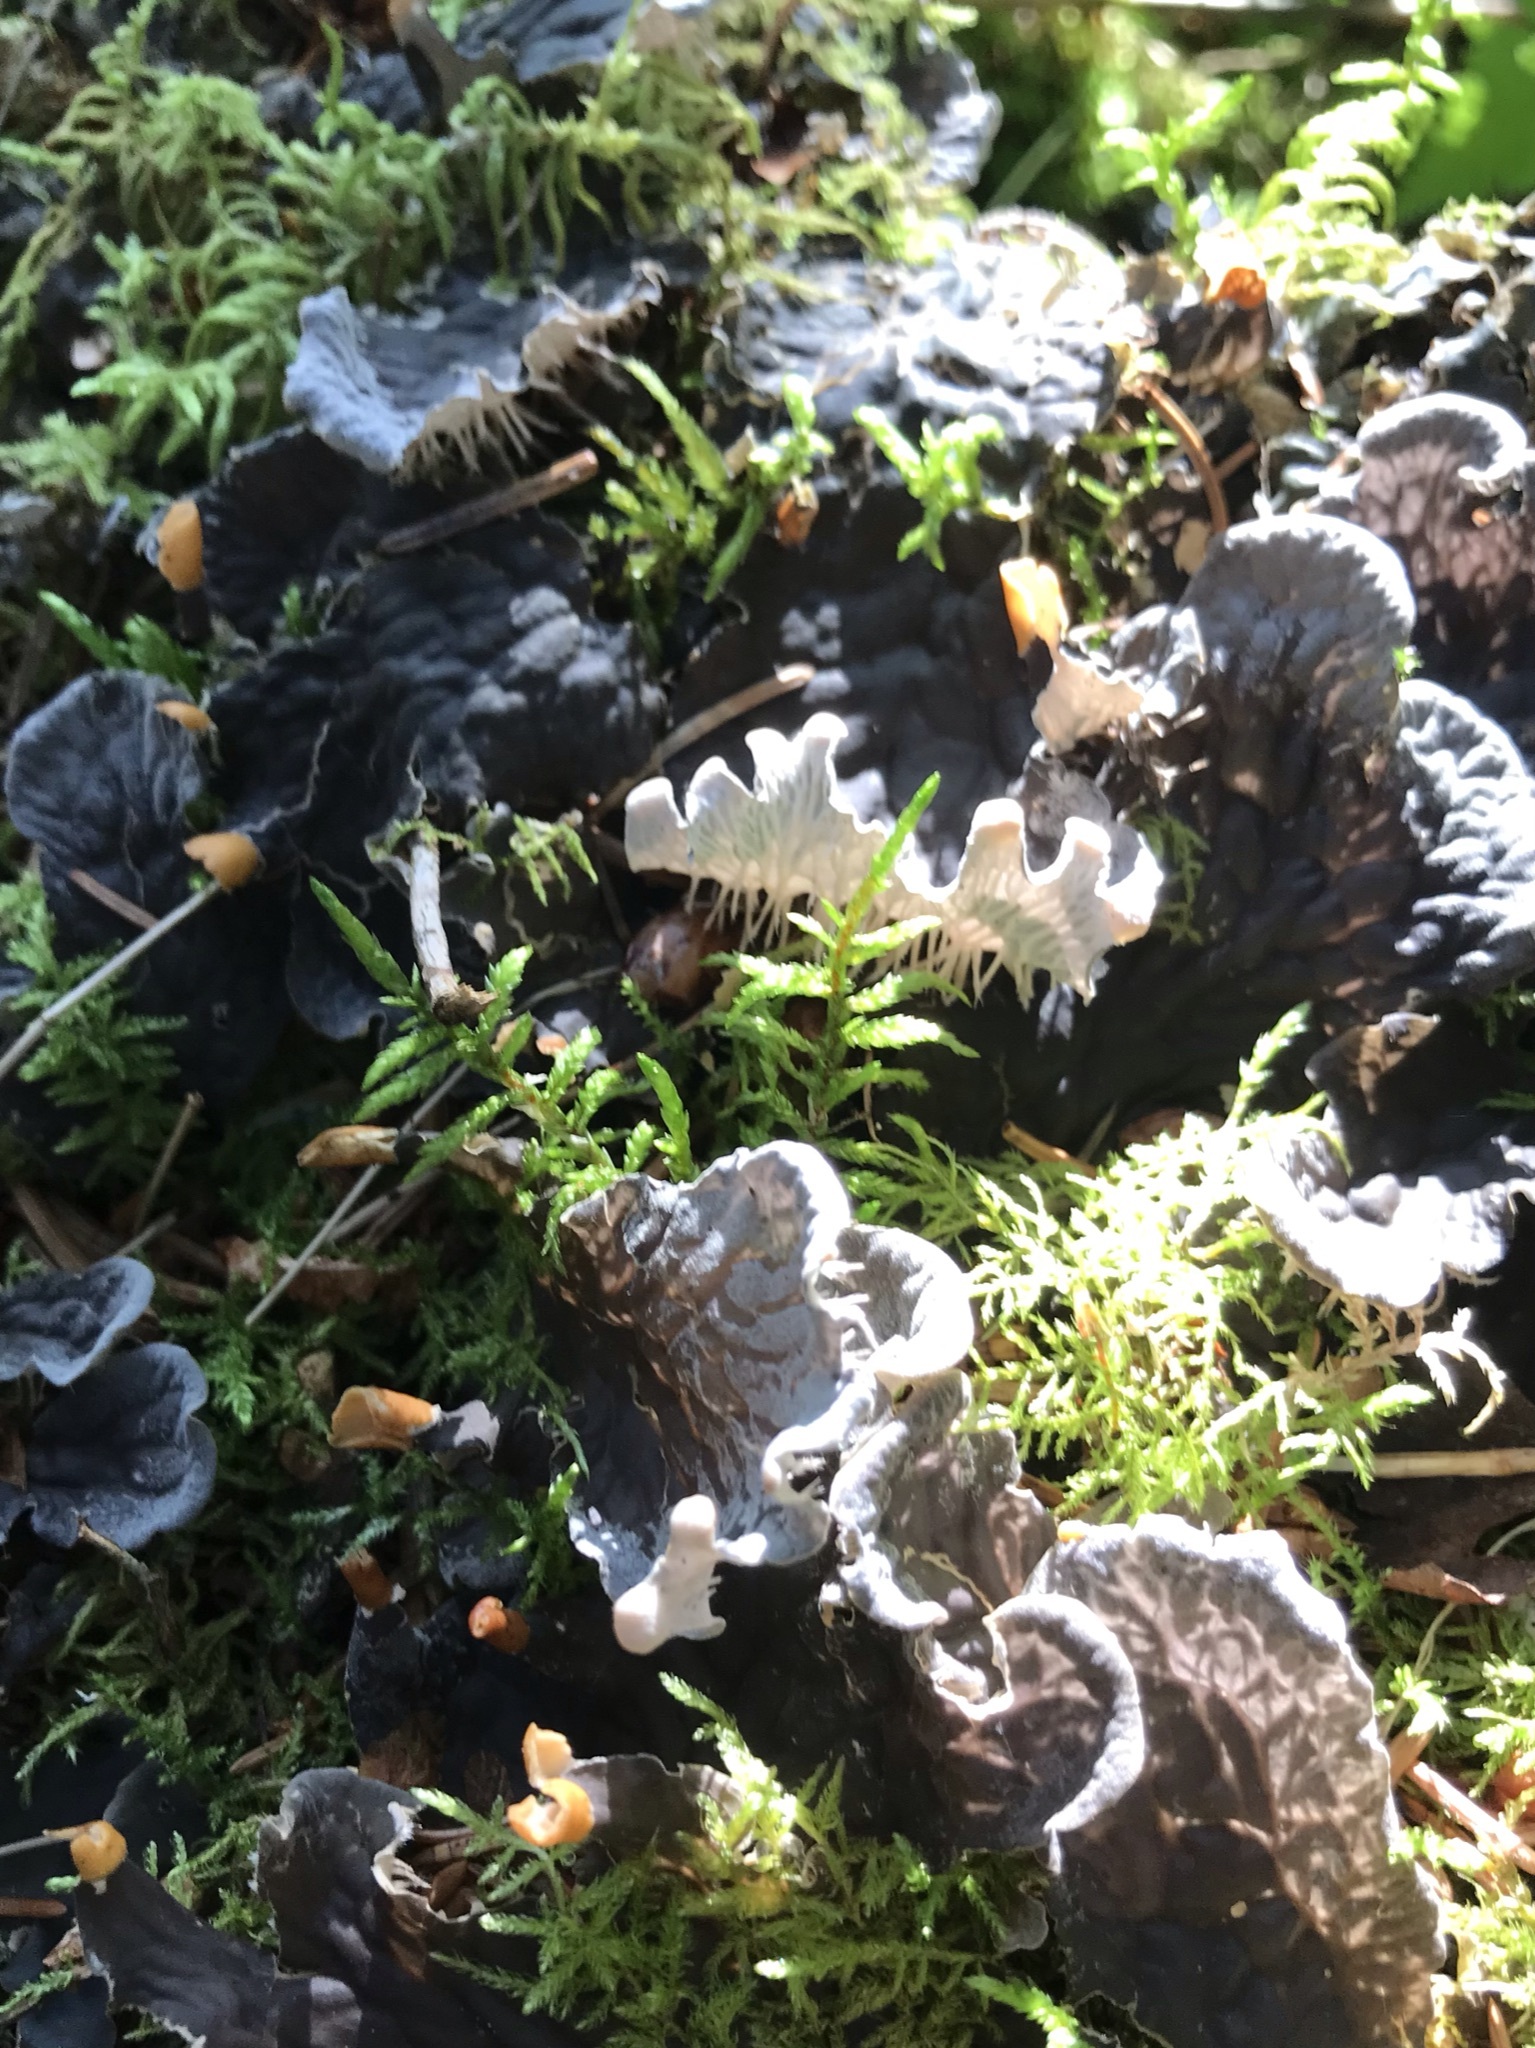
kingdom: Fungi
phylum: Ascomycota
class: Lecanoromycetes
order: Peltigerales
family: Peltigeraceae
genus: Peltigera
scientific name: Peltigera membranacea
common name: Membranous pelt lichen
